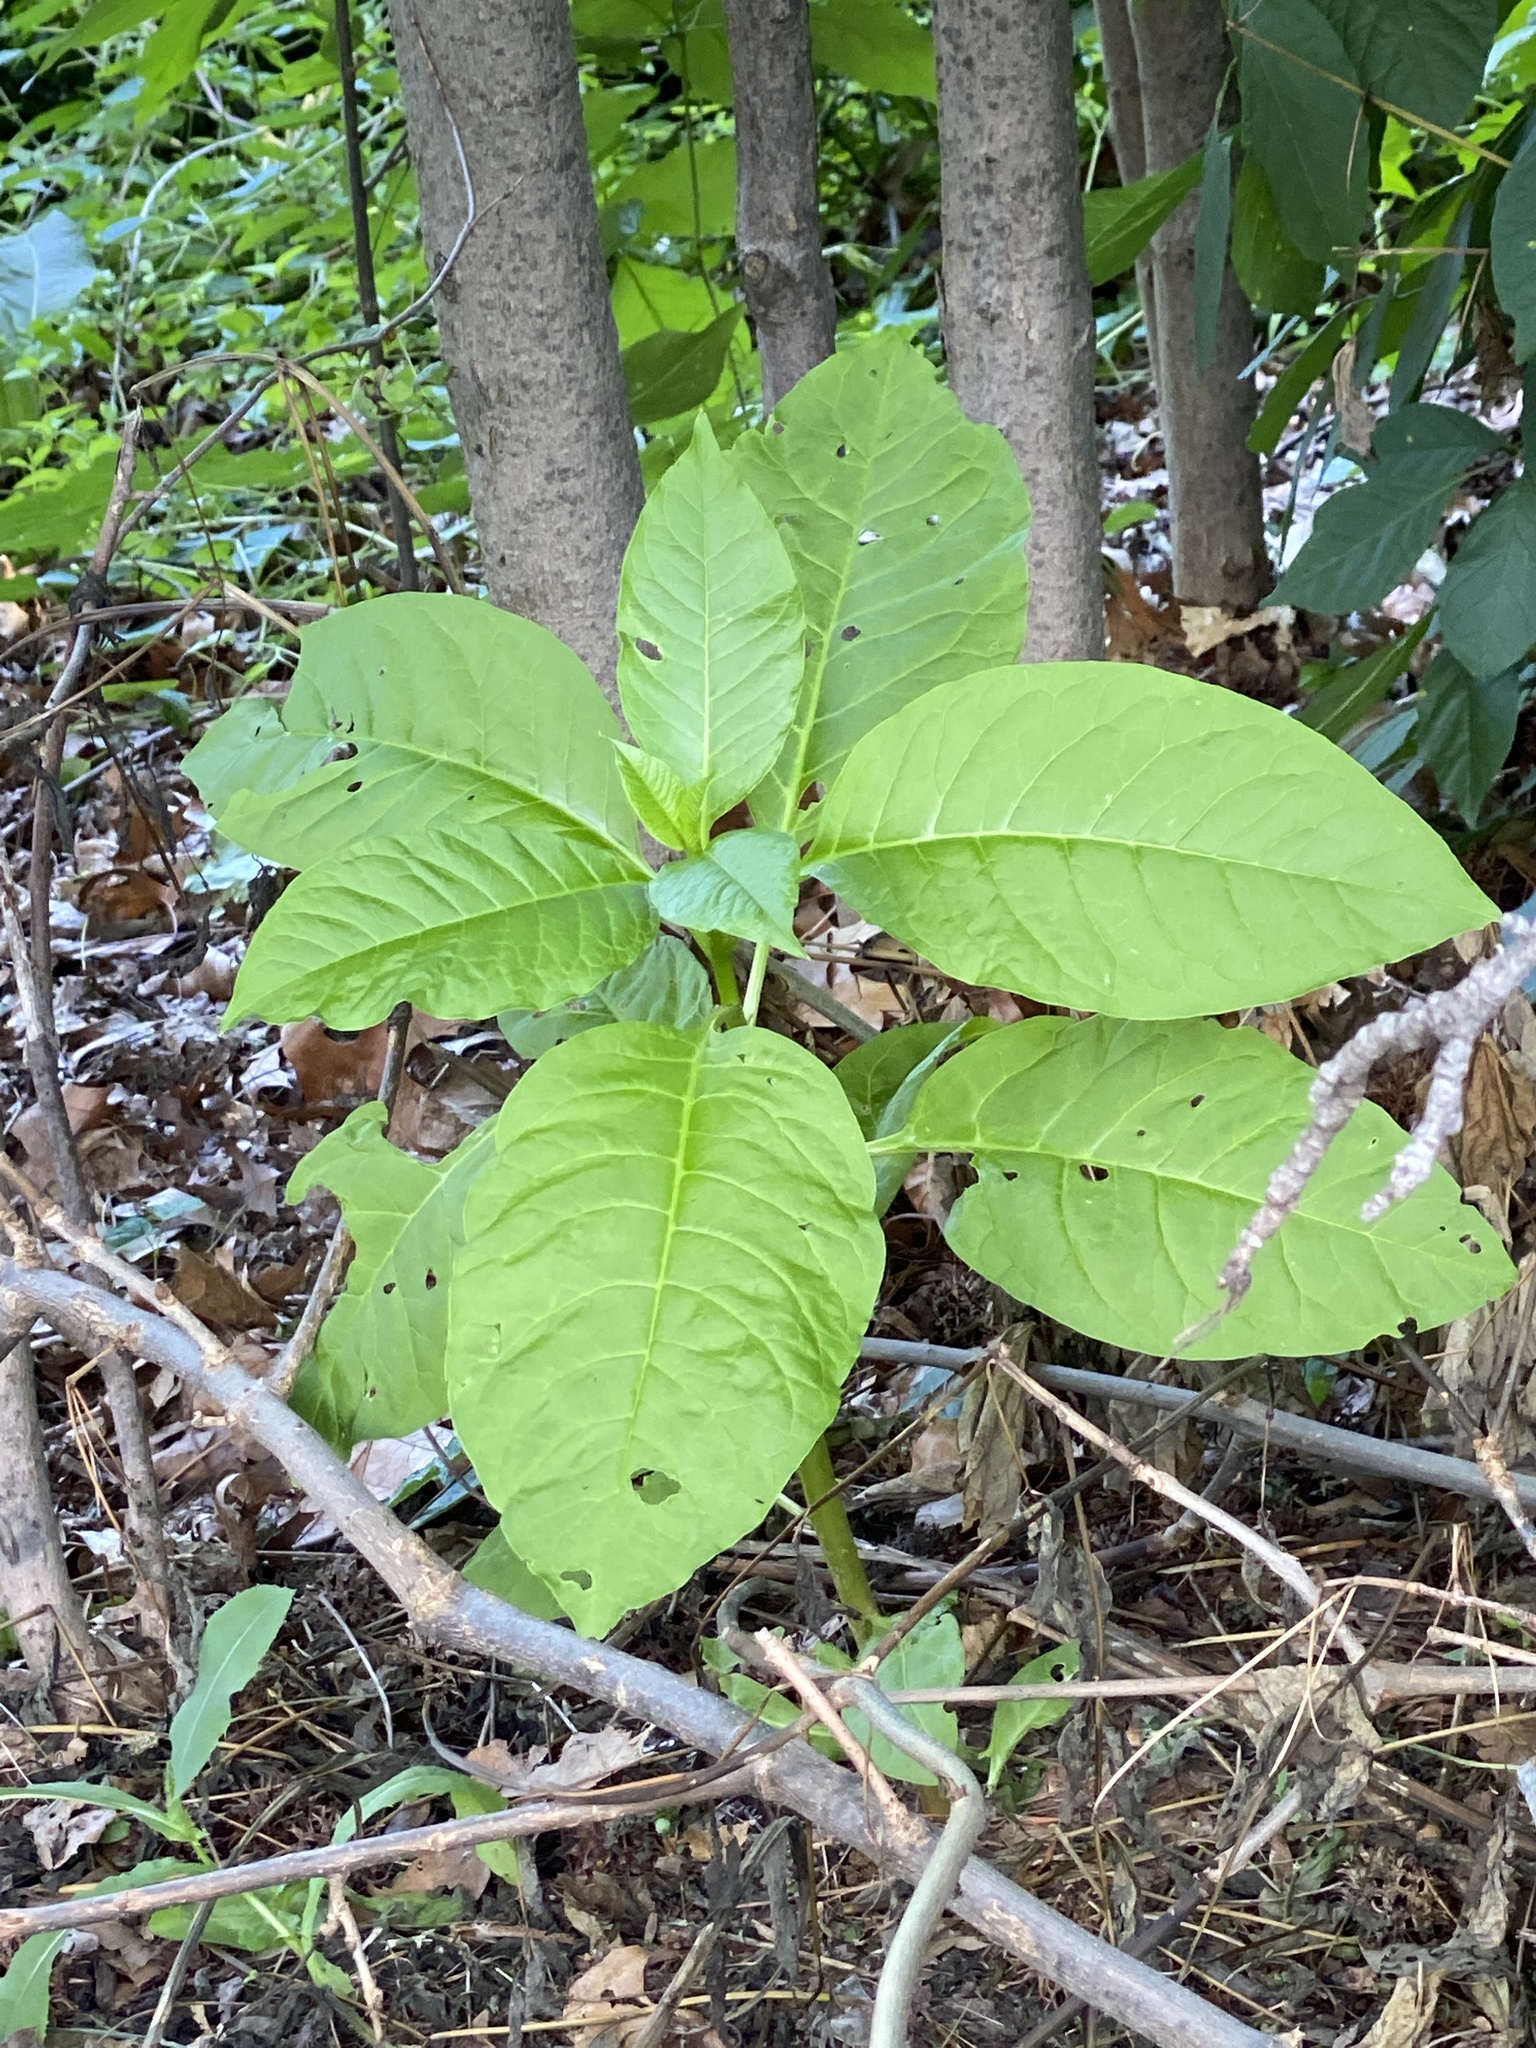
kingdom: Plantae
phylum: Tracheophyta
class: Magnoliopsida
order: Caryophyllales
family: Phytolaccaceae
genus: Phytolacca
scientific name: Phytolacca americana
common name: American pokeweed
